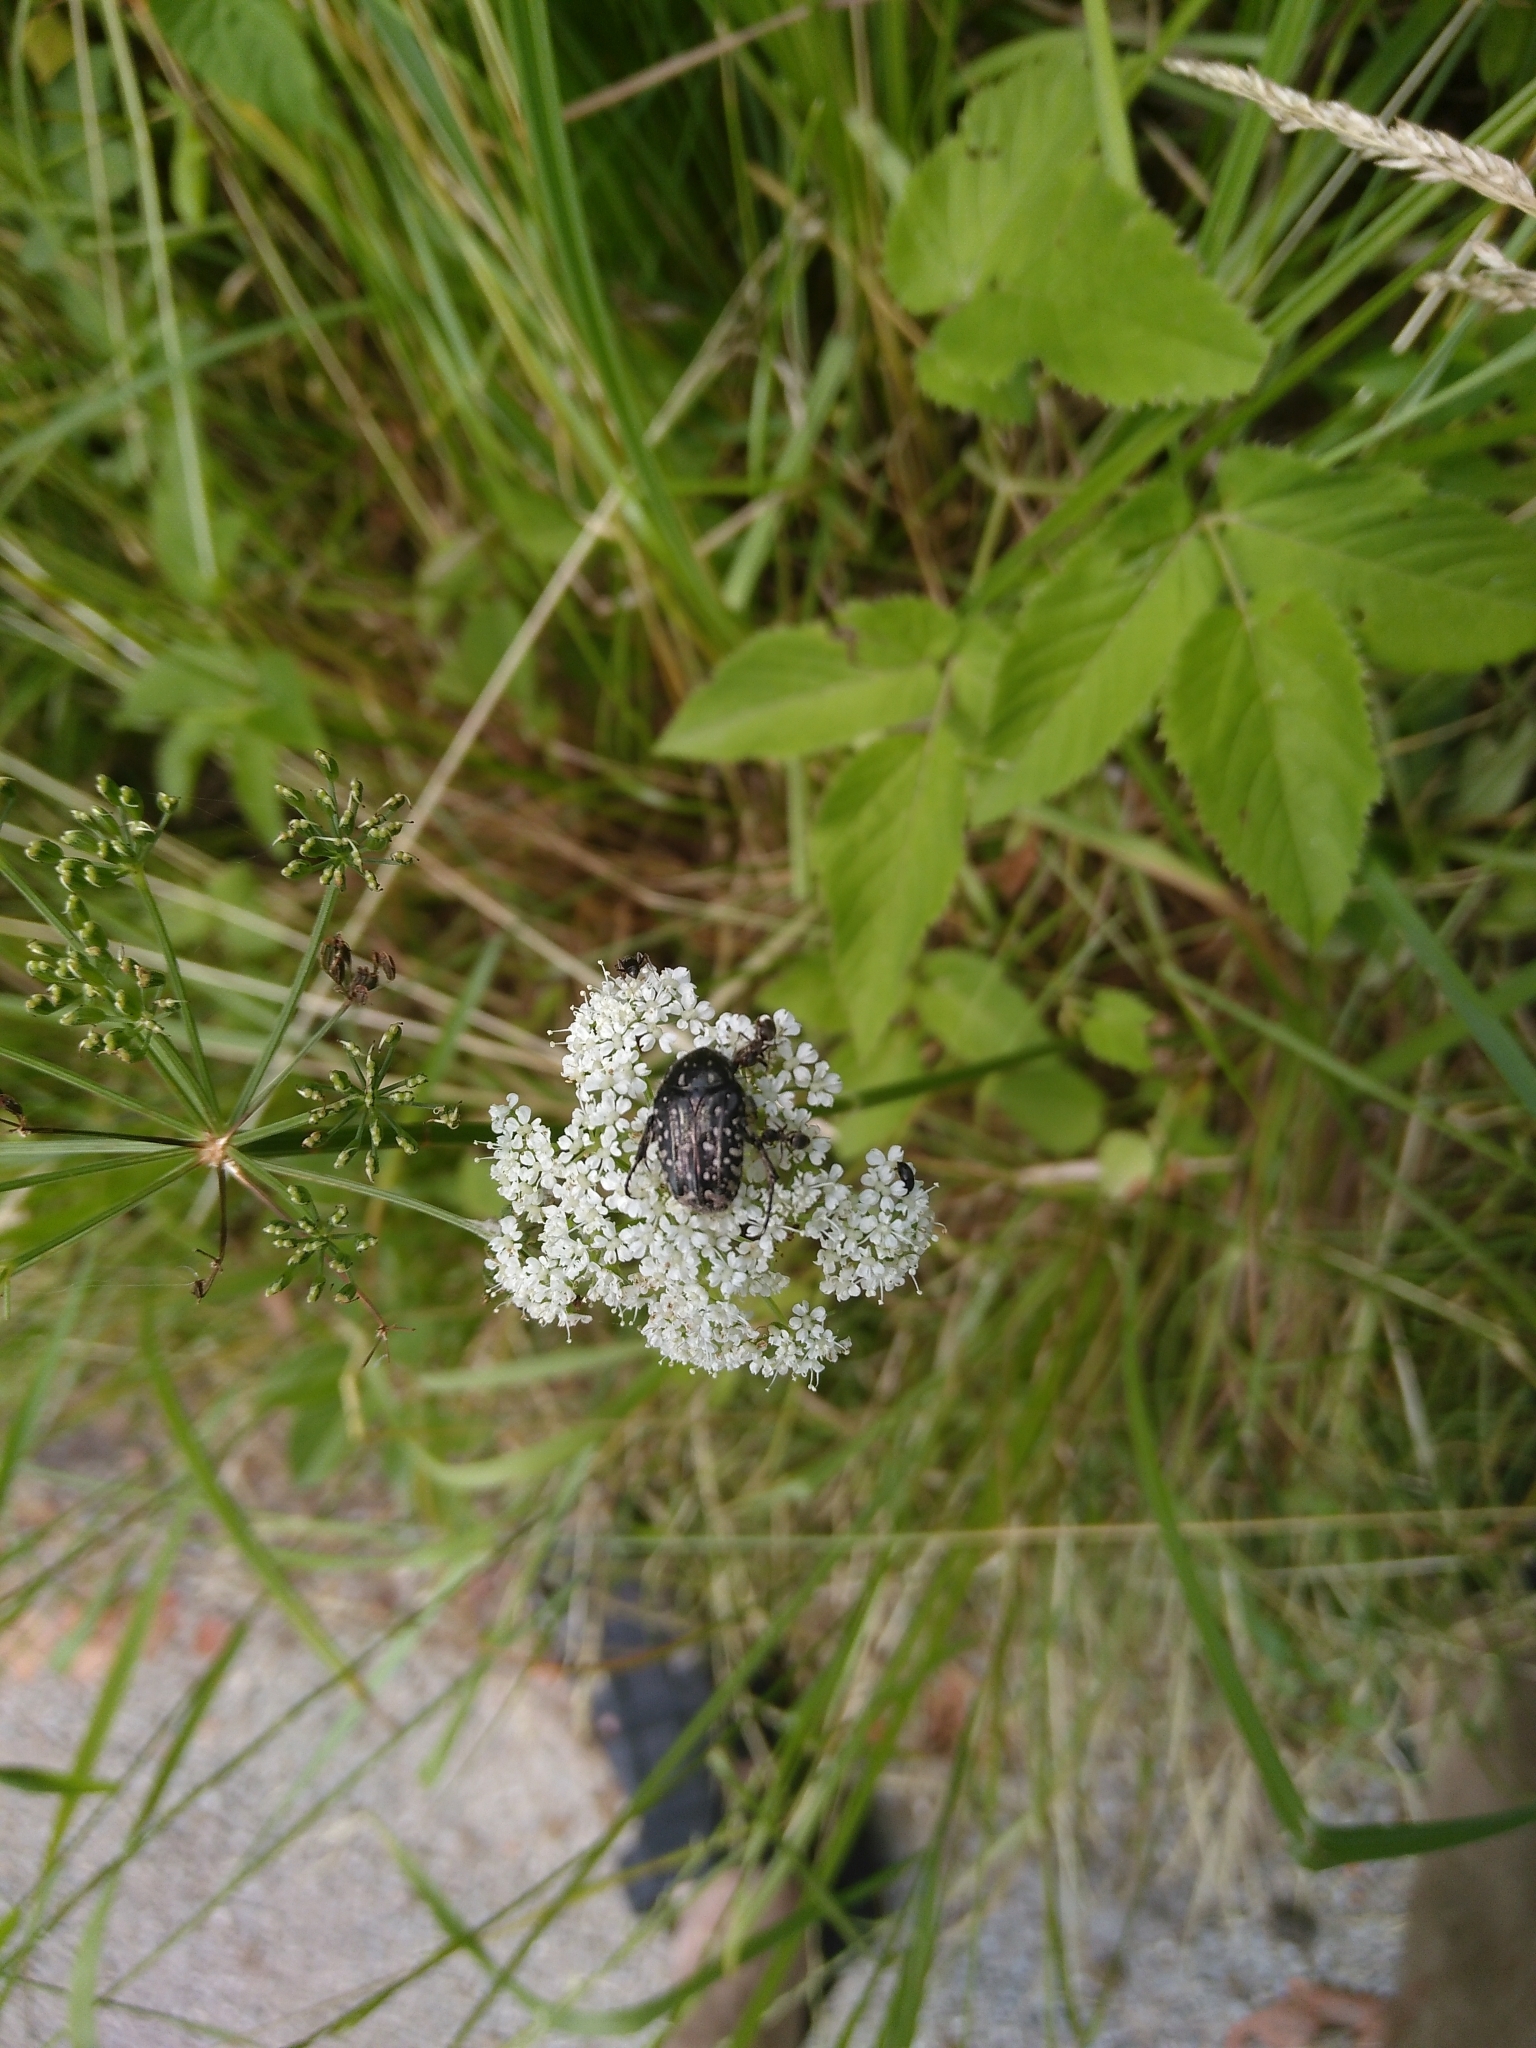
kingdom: Animalia
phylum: Arthropoda
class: Insecta
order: Coleoptera
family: Scarabaeidae
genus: Oxythyrea
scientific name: Oxythyrea funesta
